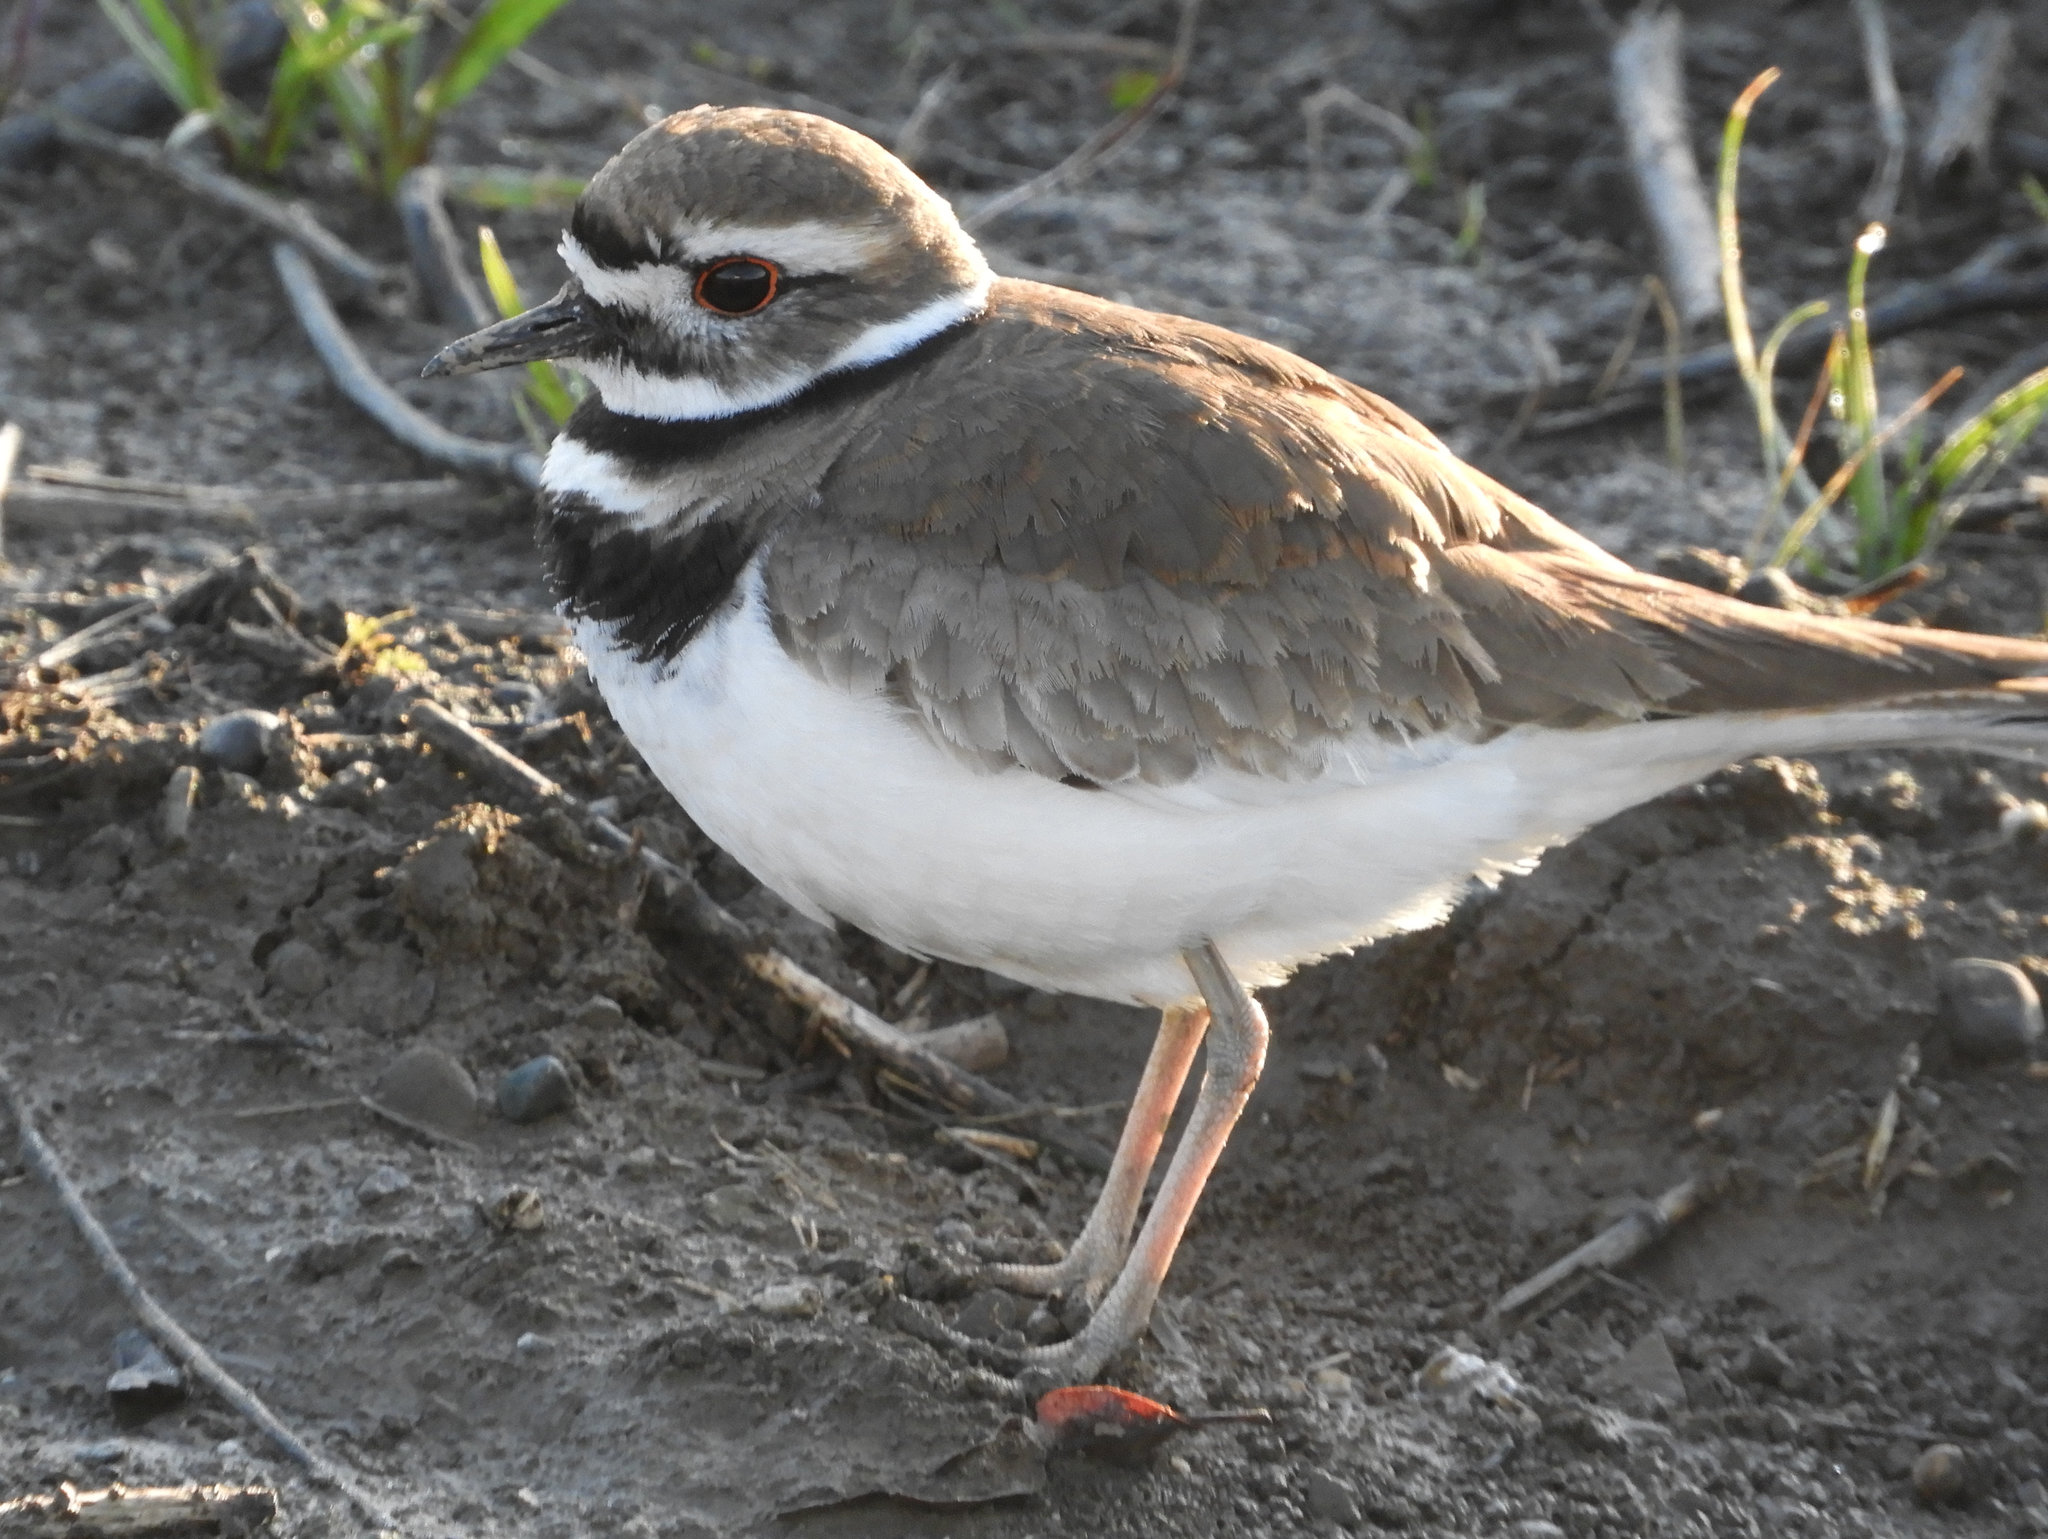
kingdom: Animalia
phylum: Chordata
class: Aves
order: Charadriiformes
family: Charadriidae
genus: Charadrius
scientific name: Charadrius vociferus
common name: Killdeer
